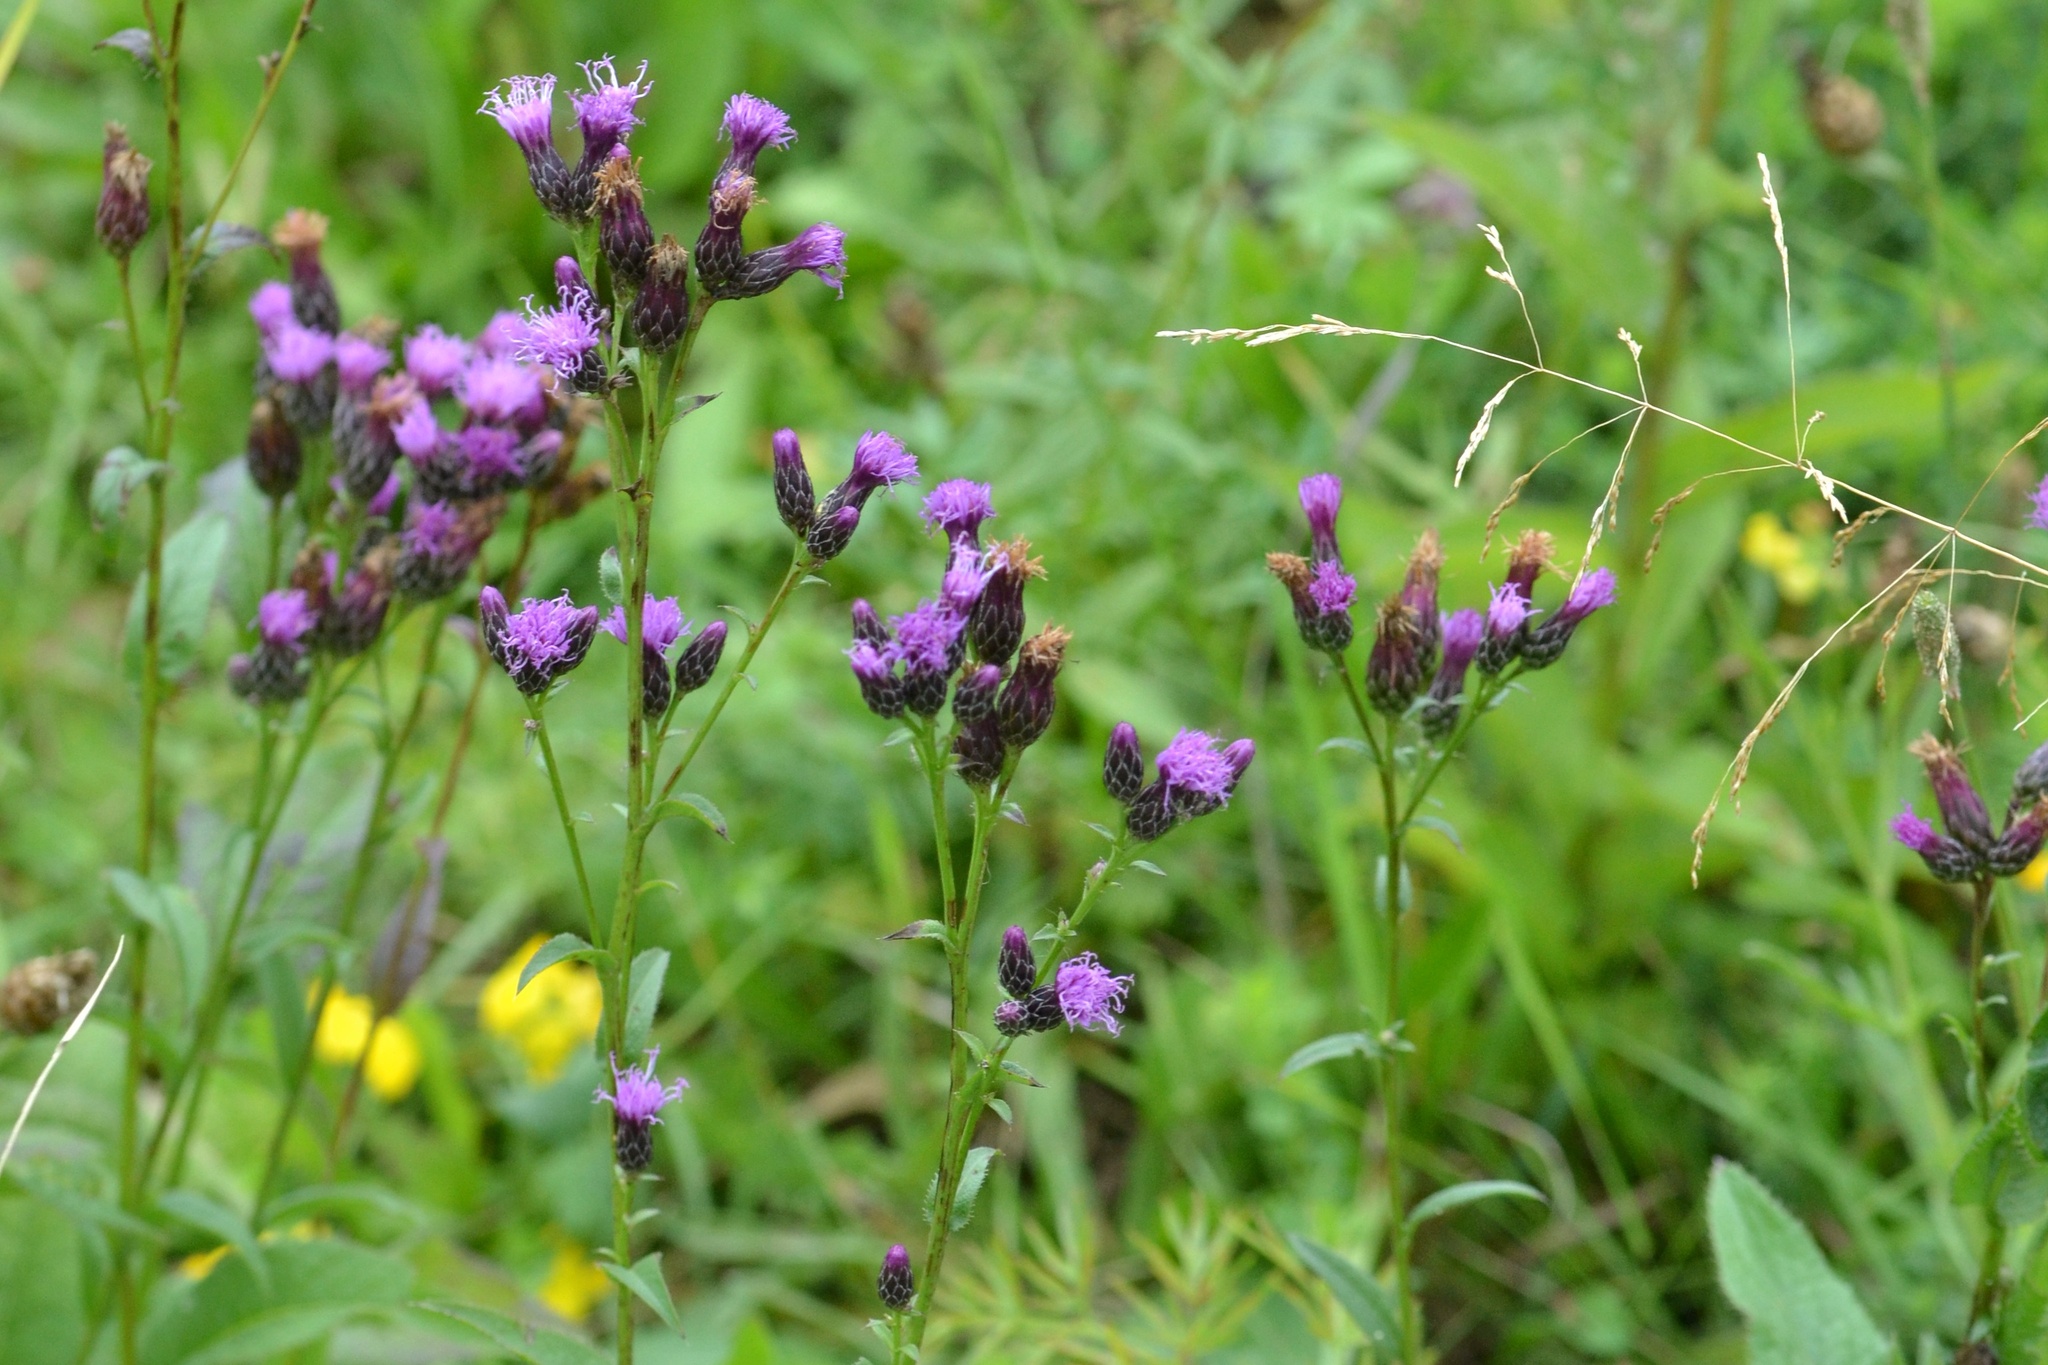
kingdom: Plantae
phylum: Tracheophyta
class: Magnoliopsida
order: Asterales
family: Asteraceae
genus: Serratula
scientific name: Serratula tinctoria
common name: Saw-wort
